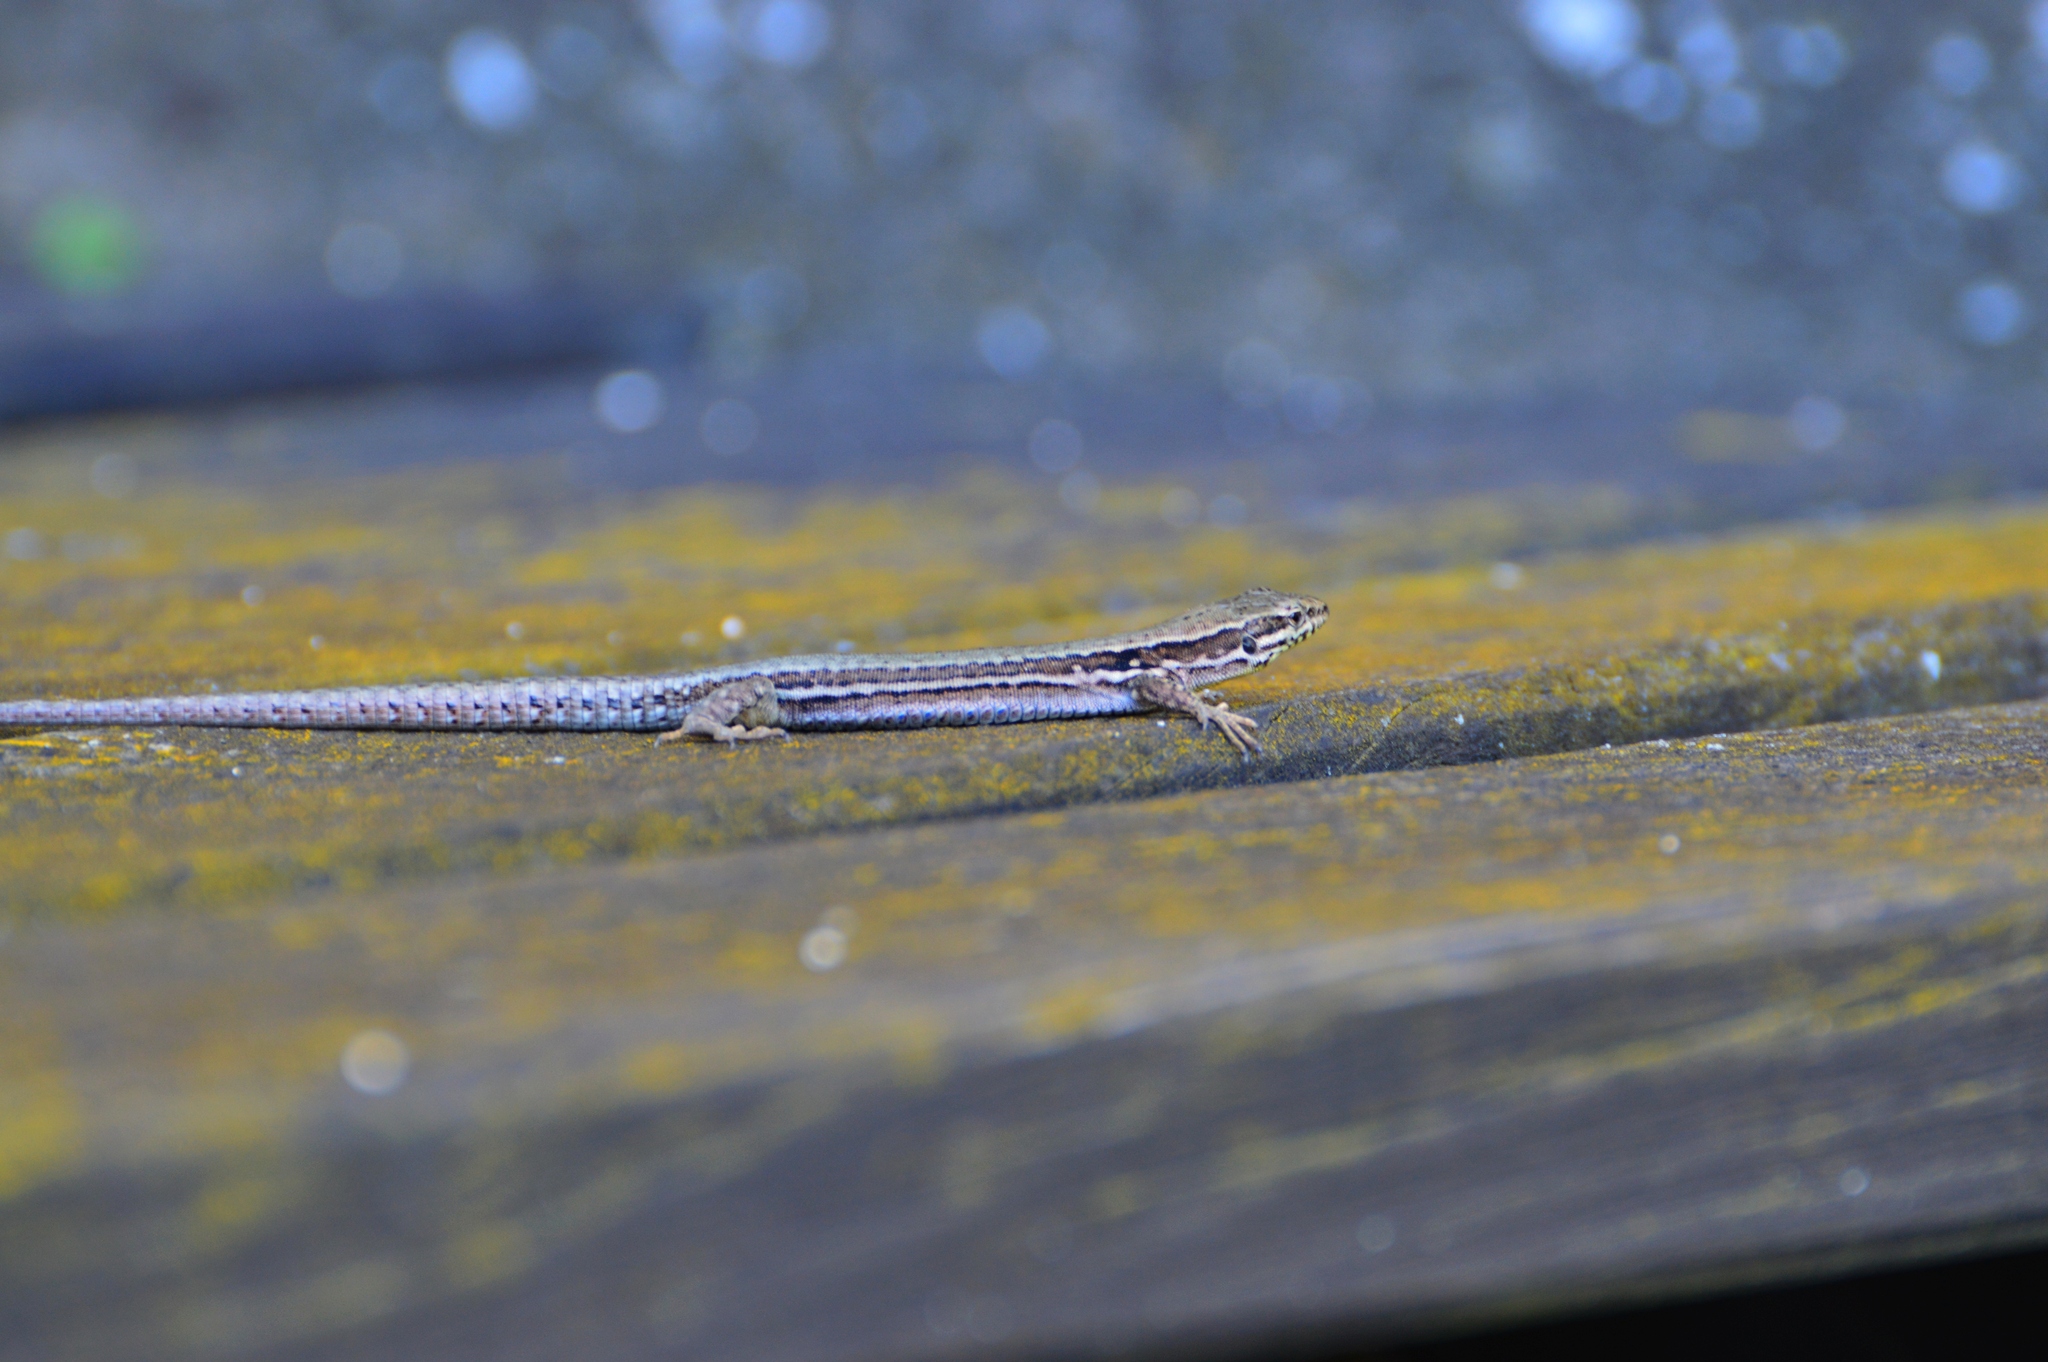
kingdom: Animalia
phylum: Chordata
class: Squamata
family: Lacertidae
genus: Podarcis
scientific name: Podarcis muralis
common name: Common wall lizard
